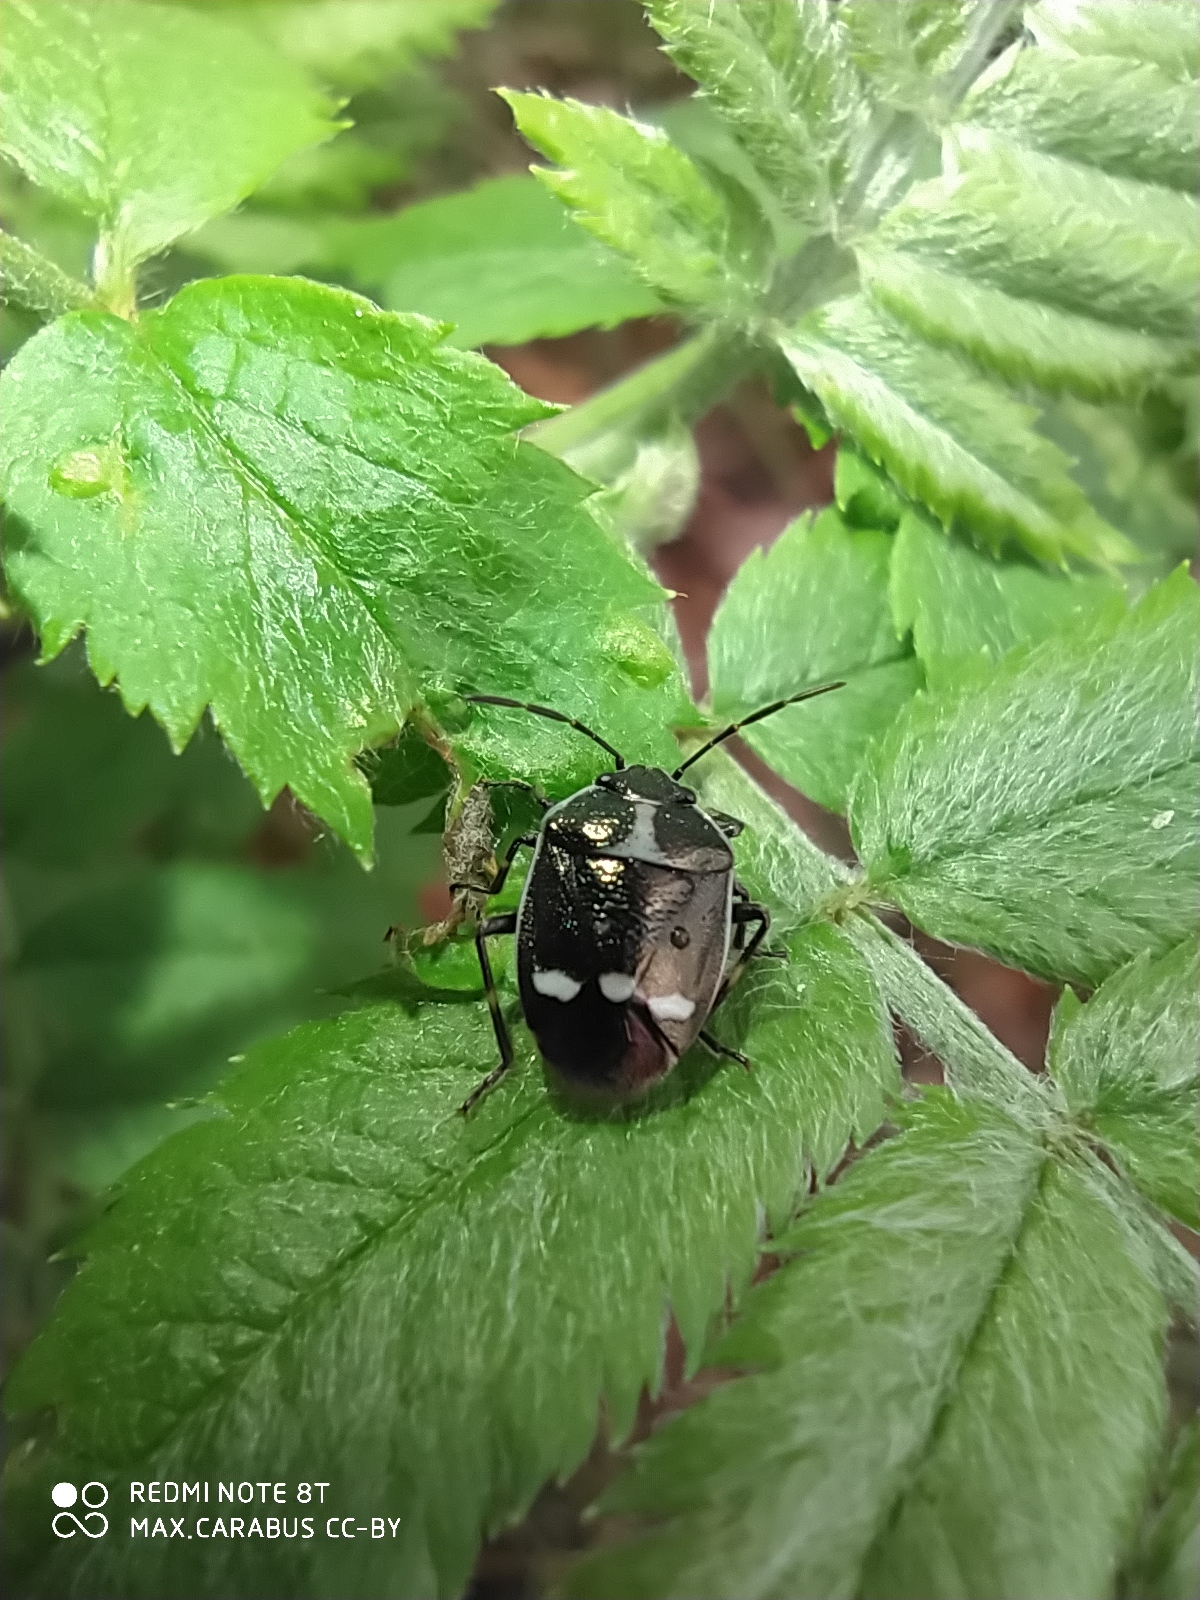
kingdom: Animalia
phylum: Arthropoda
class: Insecta
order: Hemiptera
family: Pentatomidae
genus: Eurydema
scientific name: Eurydema oleracea
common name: Cabbage bug
